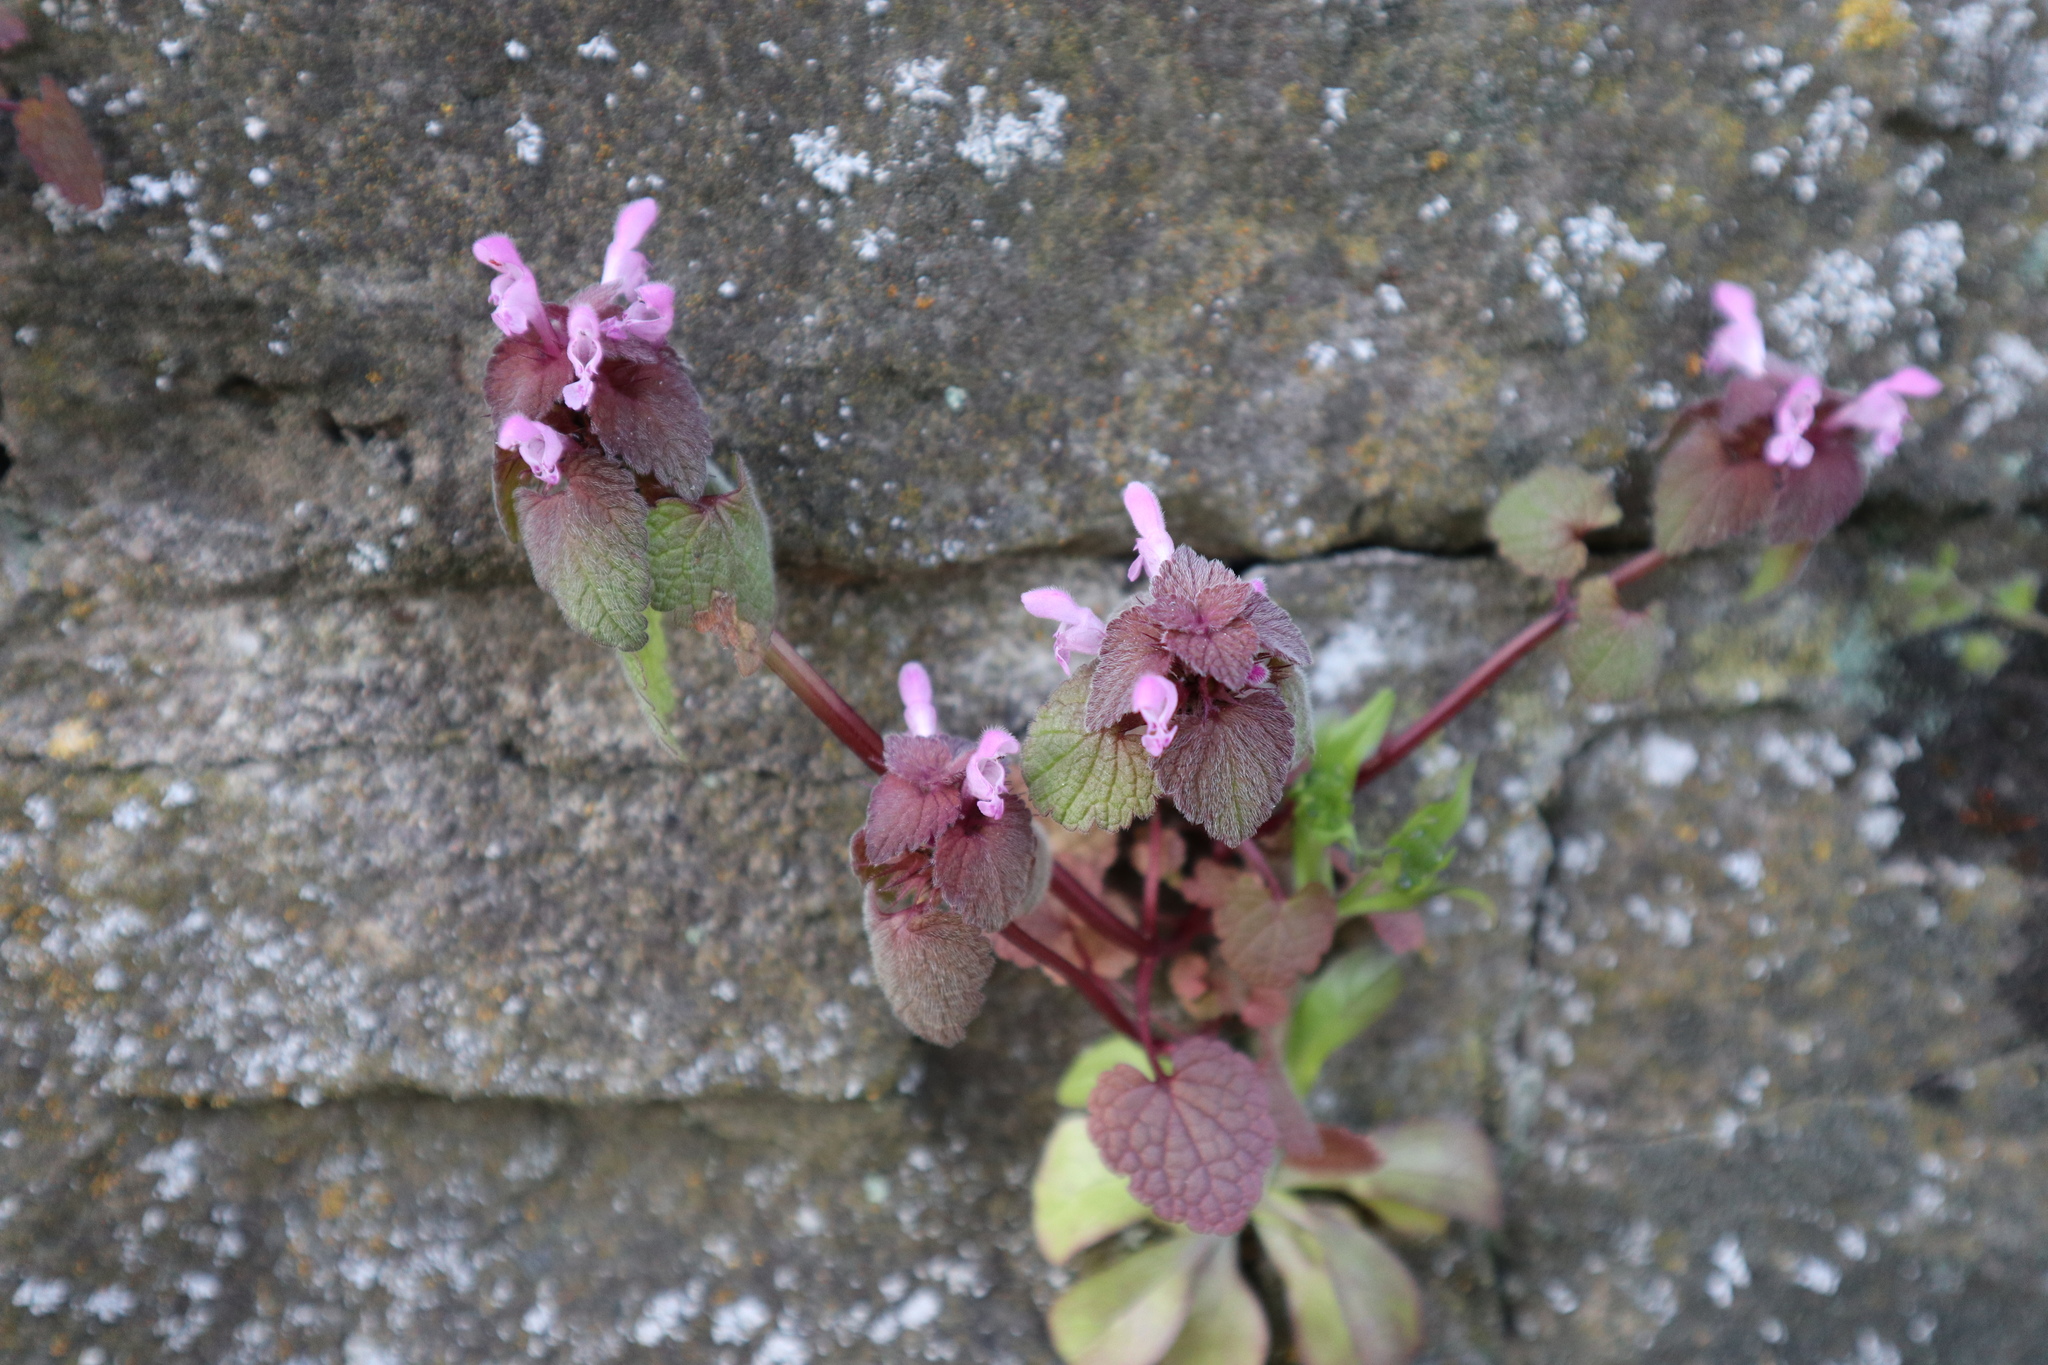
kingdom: Plantae
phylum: Tracheophyta
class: Magnoliopsida
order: Lamiales
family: Lamiaceae
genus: Lamium
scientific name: Lamium purpureum
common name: Red dead-nettle
